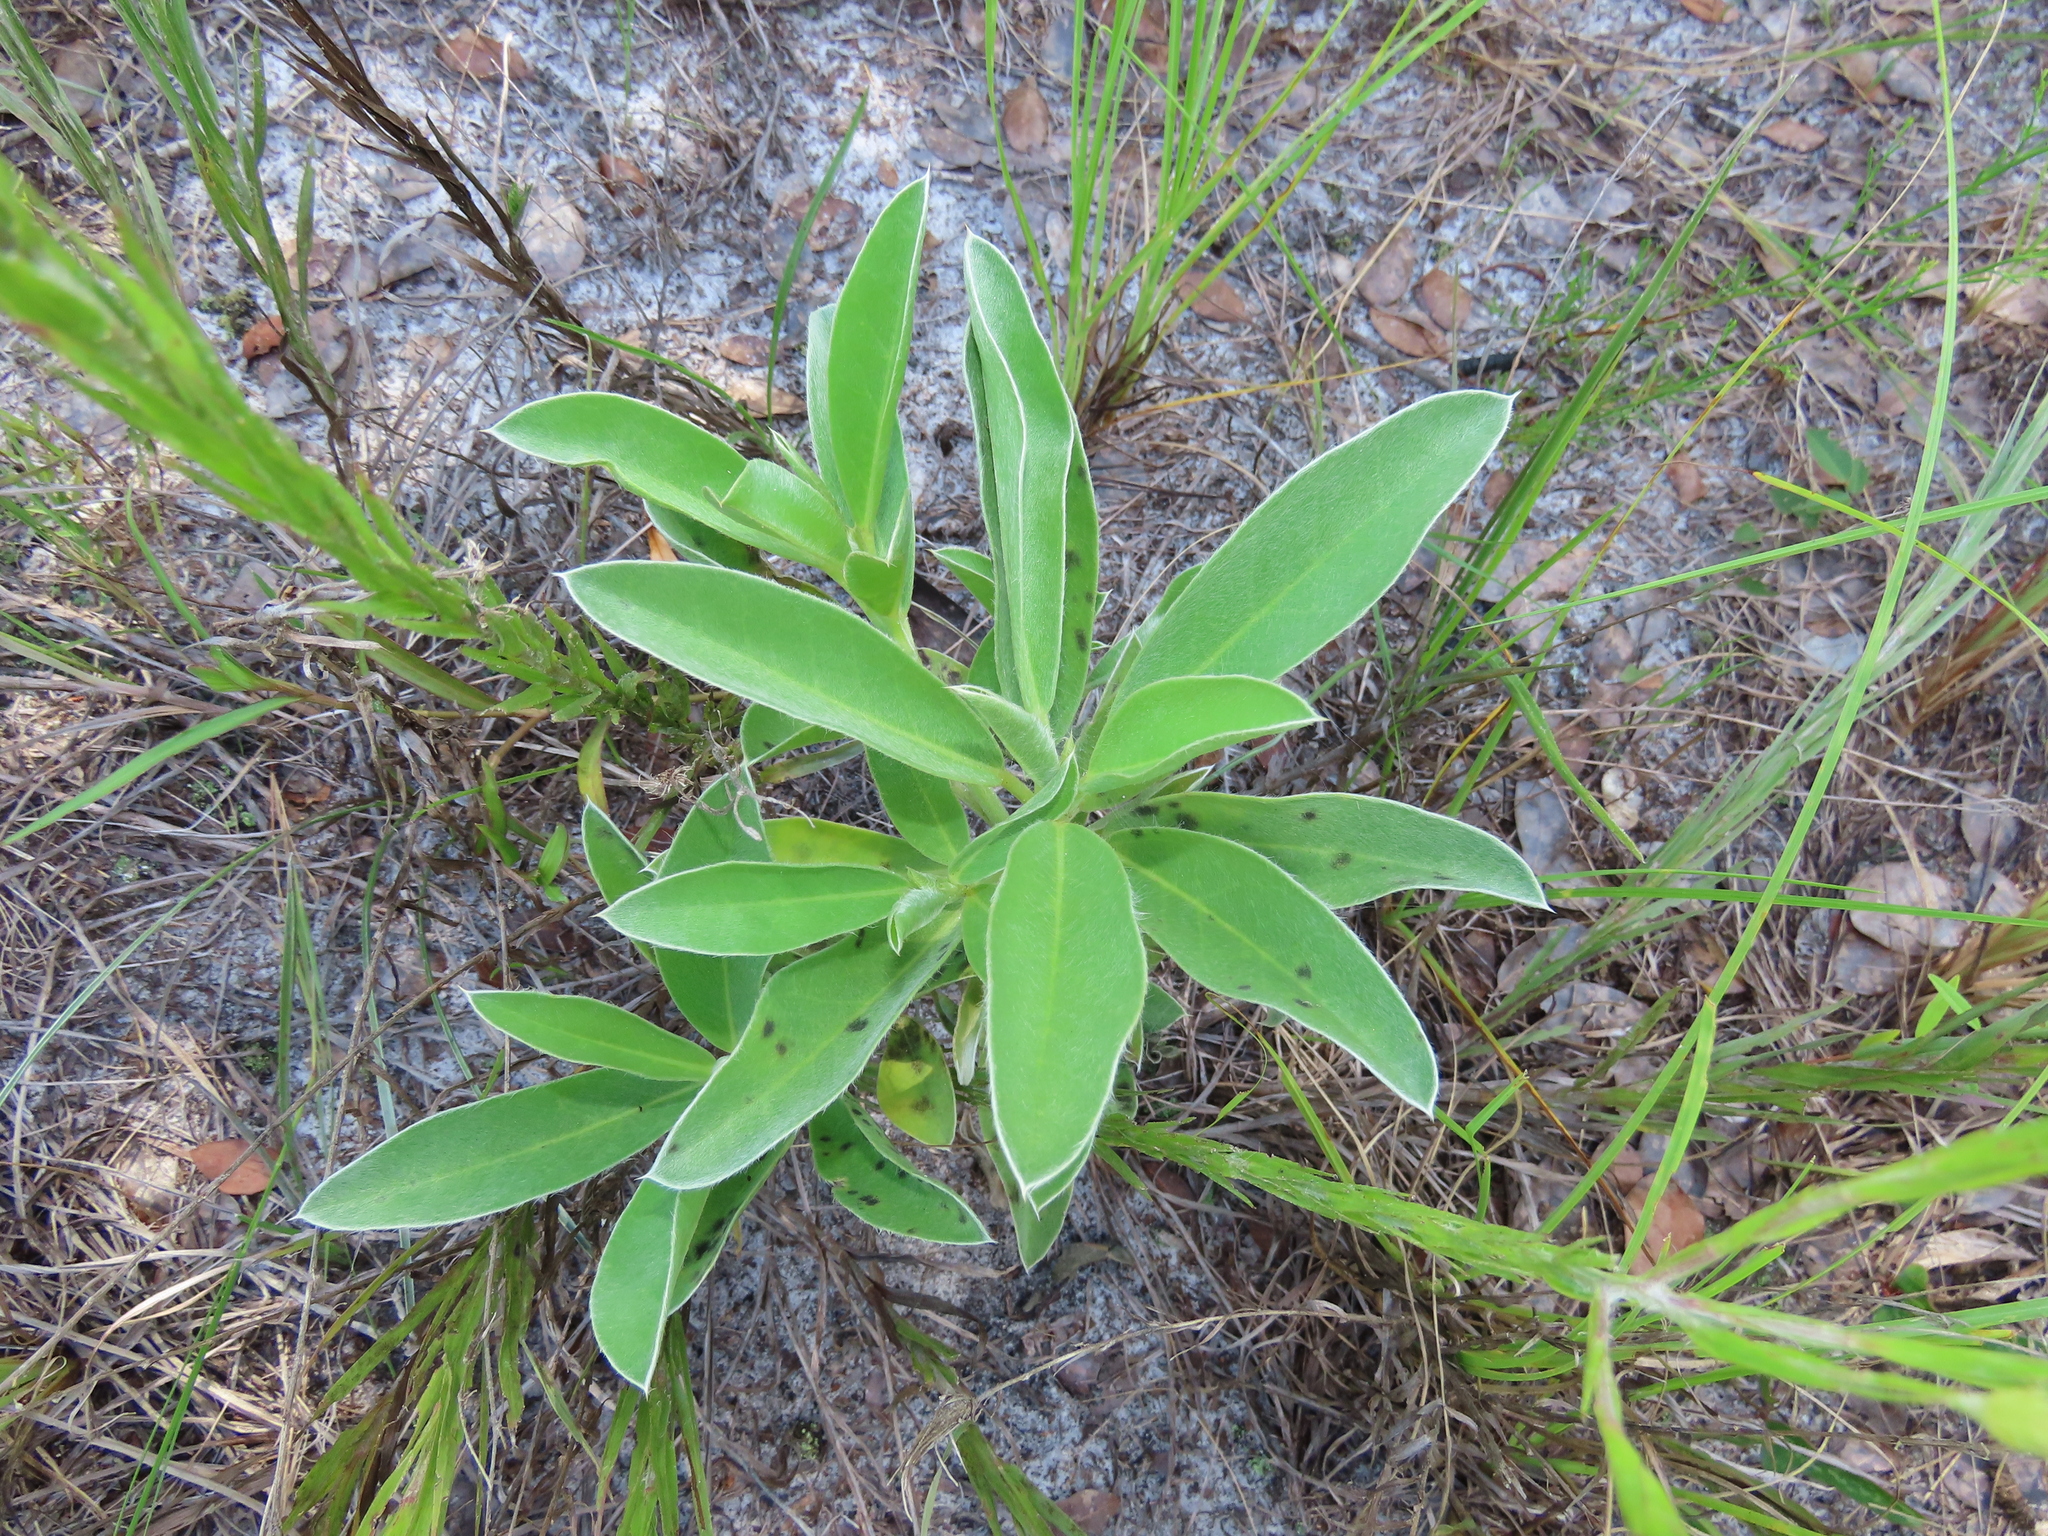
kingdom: Plantae
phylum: Tracheophyta
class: Magnoliopsida
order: Fabales
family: Fabaceae
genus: Lupinus
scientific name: Lupinus
